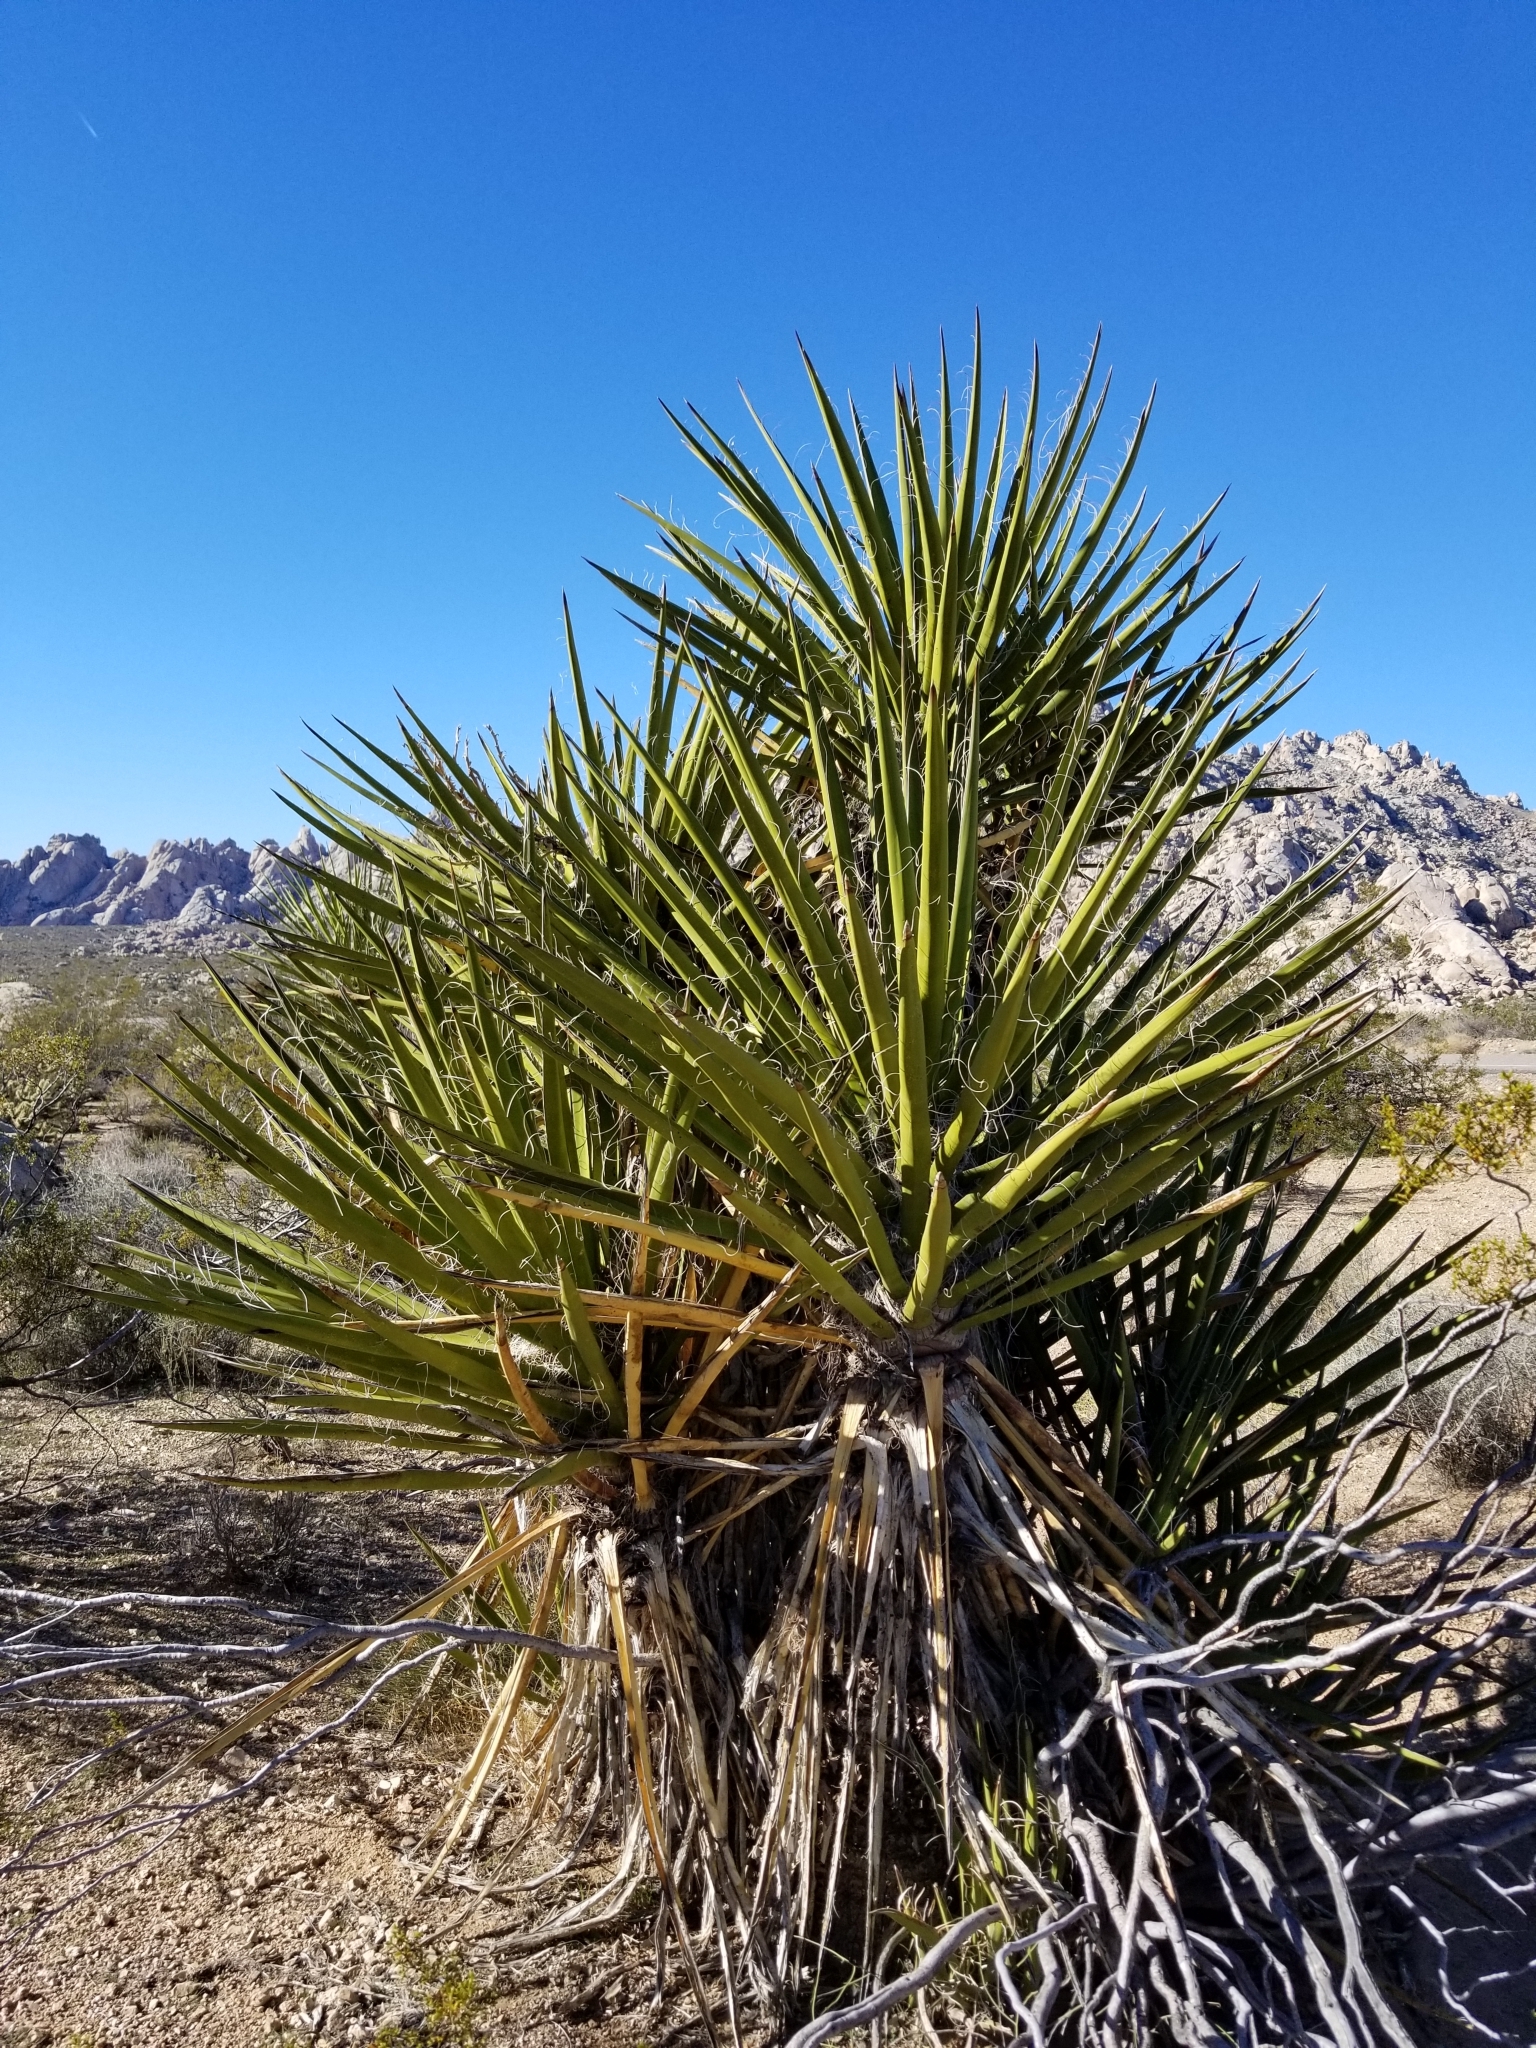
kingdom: Plantae
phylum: Tracheophyta
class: Liliopsida
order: Asparagales
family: Asparagaceae
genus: Yucca
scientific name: Yucca schidigera
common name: Mojave yucca
